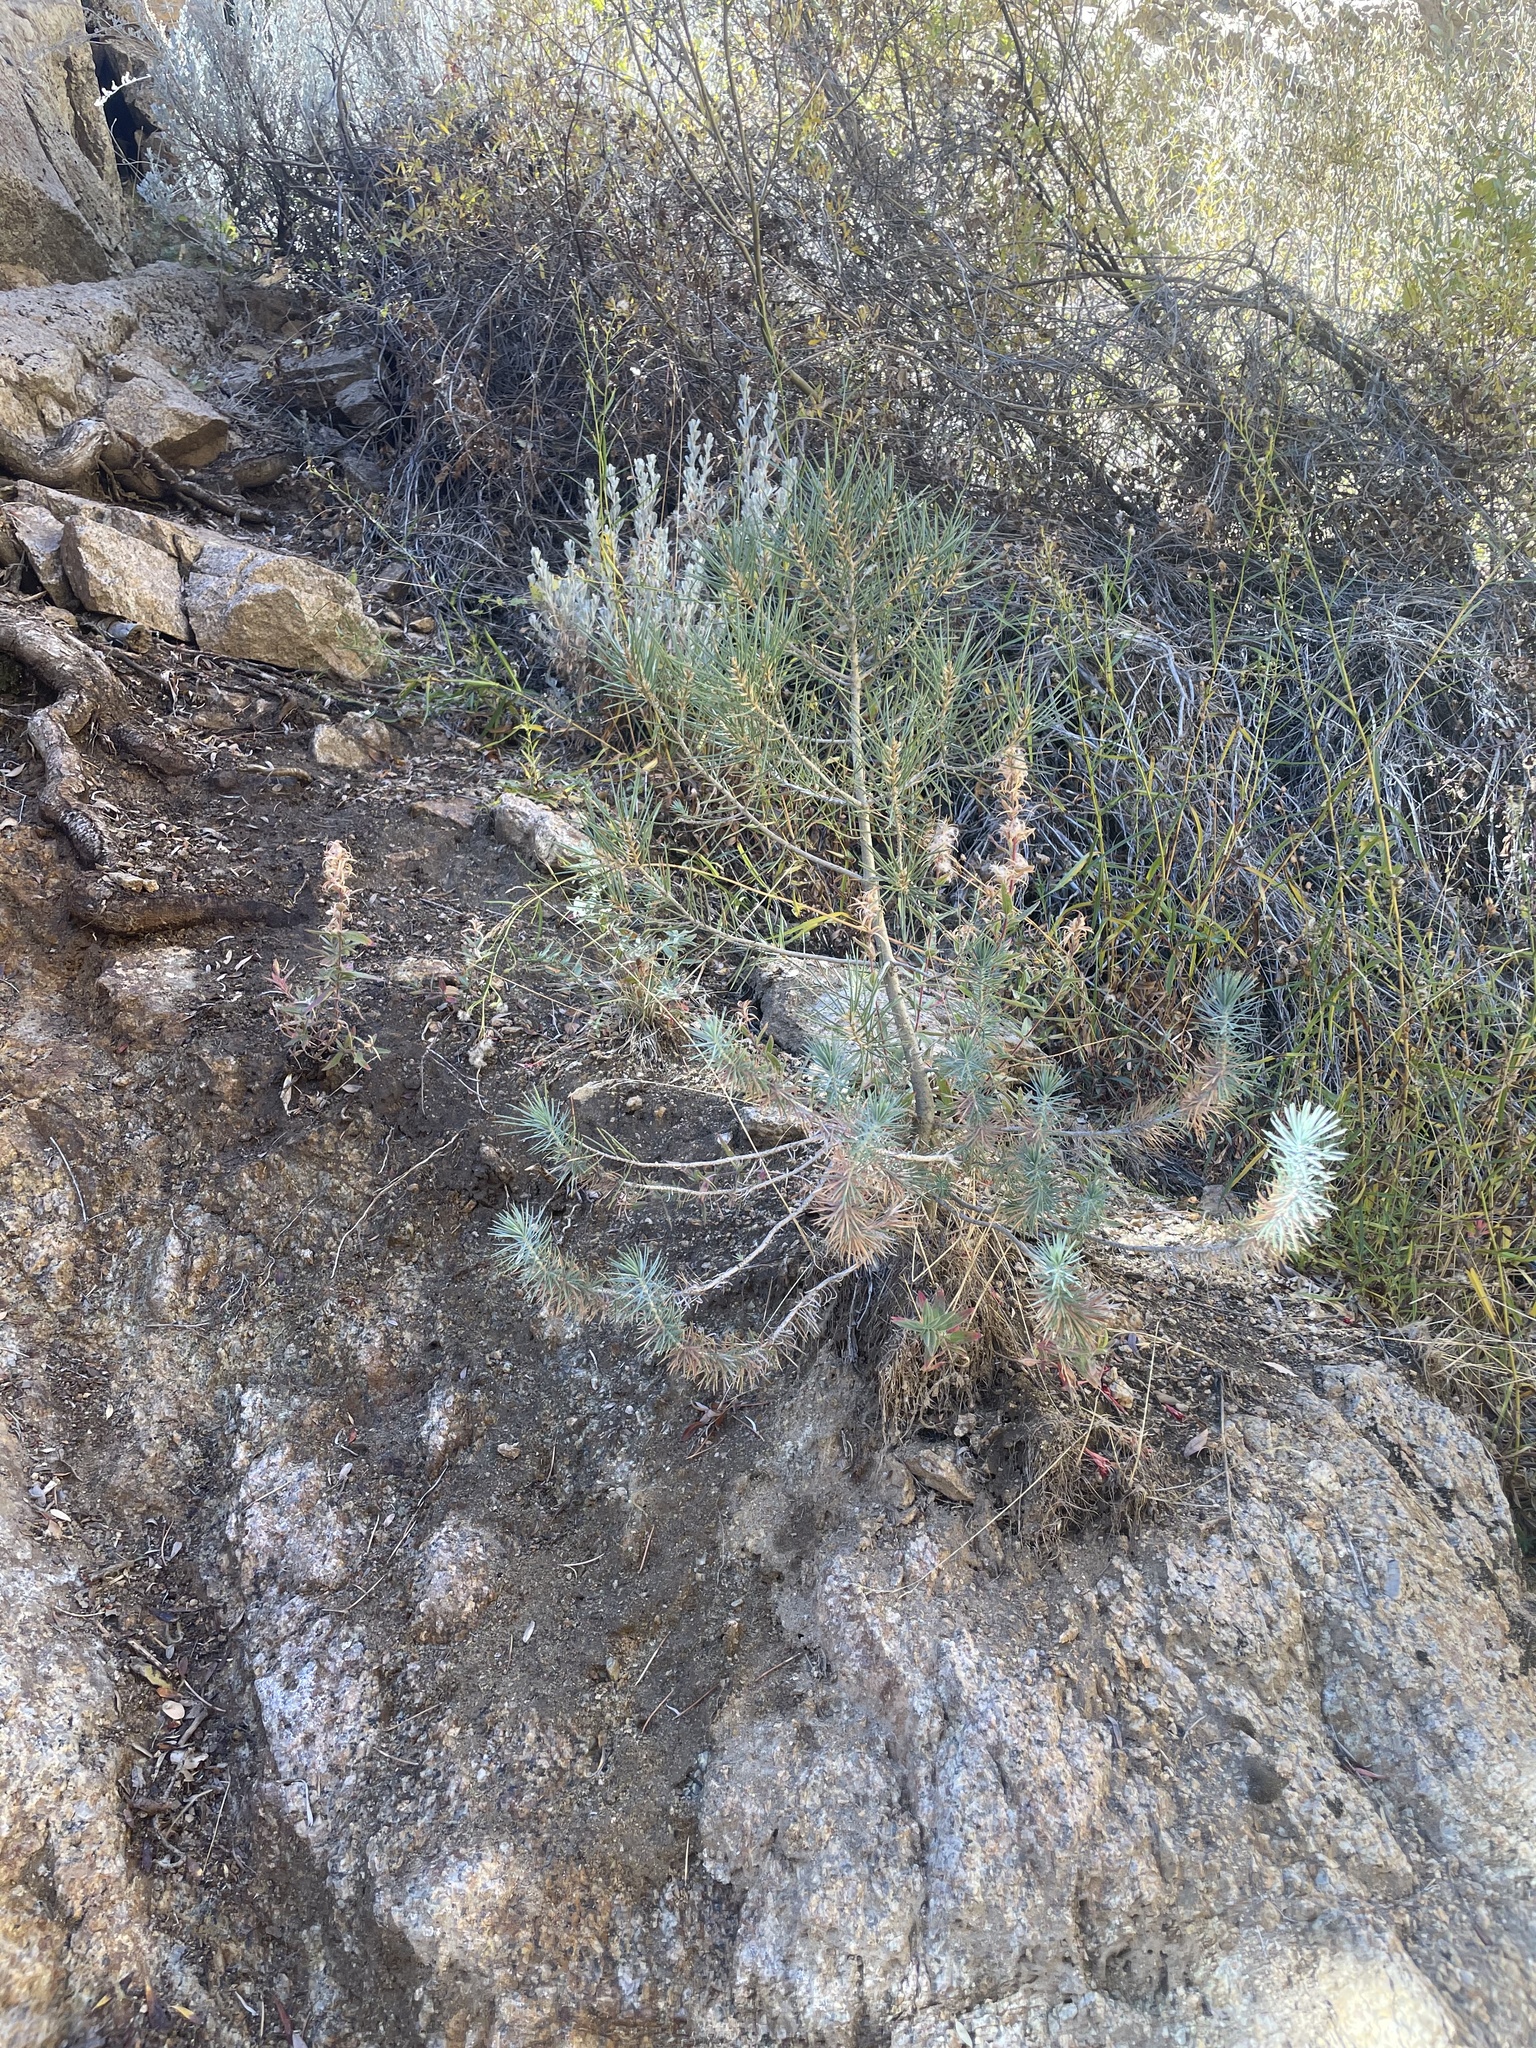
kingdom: Plantae
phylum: Tracheophyta
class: Pinopsida
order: Pinales
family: Pinaceae
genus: Pinus
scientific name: Pinus monophylla
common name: One-leaved nut pine
